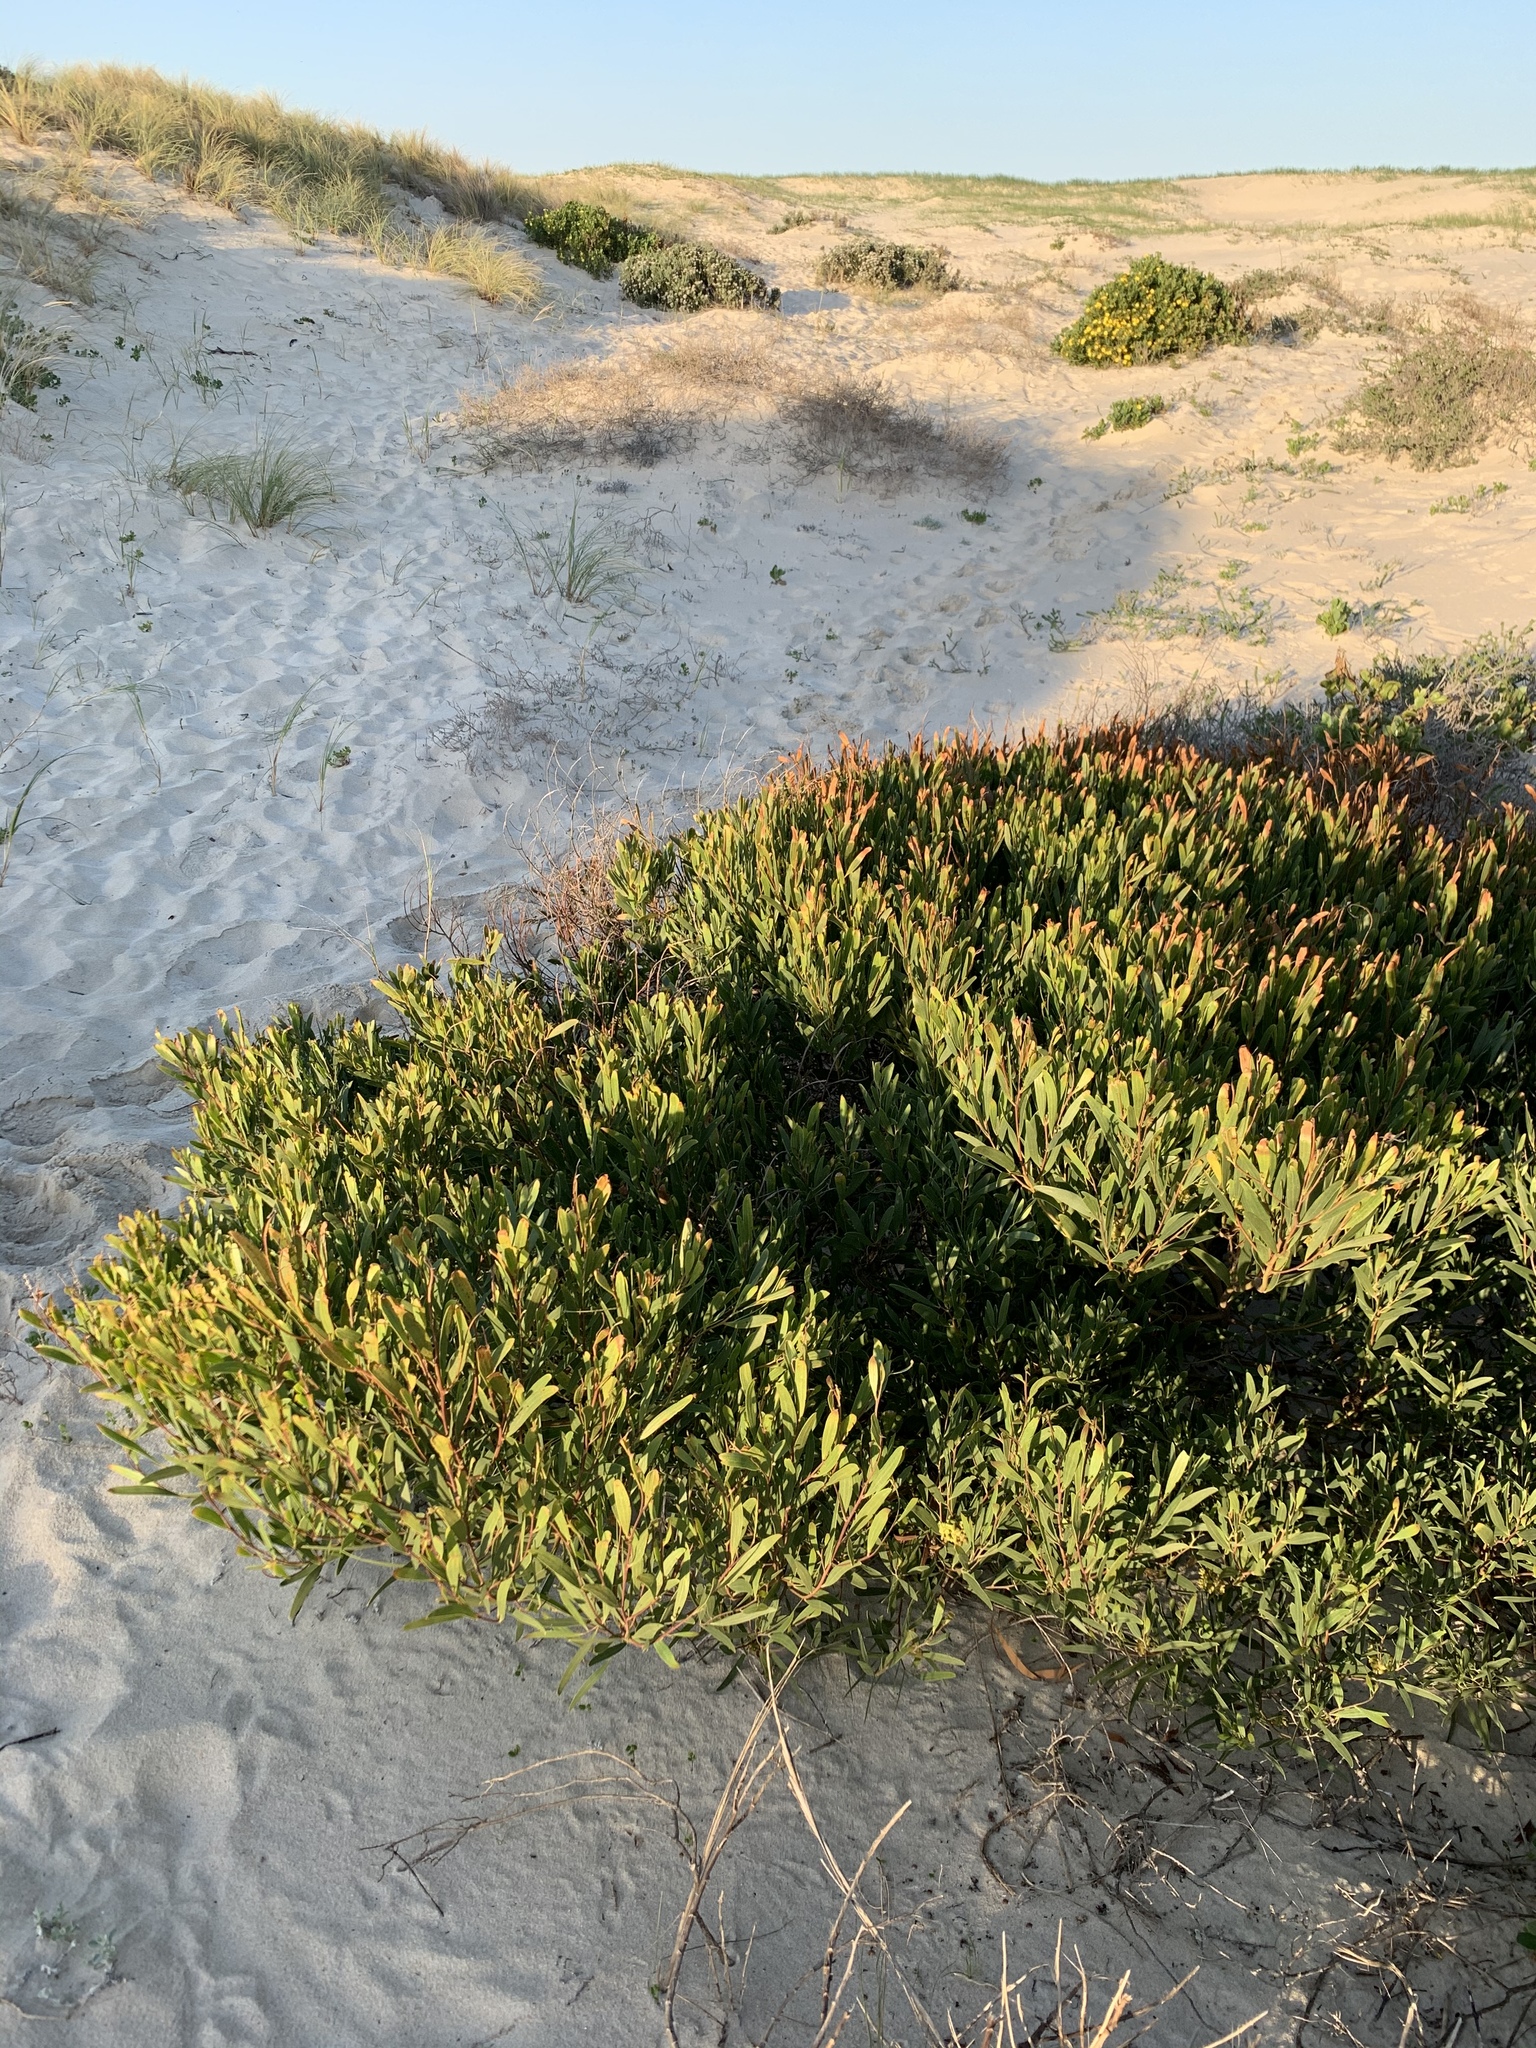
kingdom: Plantae
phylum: Tracheophyta
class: Magnoliopsida
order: Fabales
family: Fabaceae
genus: Acacia
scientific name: Acacia cyclops
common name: Coastal wattle
